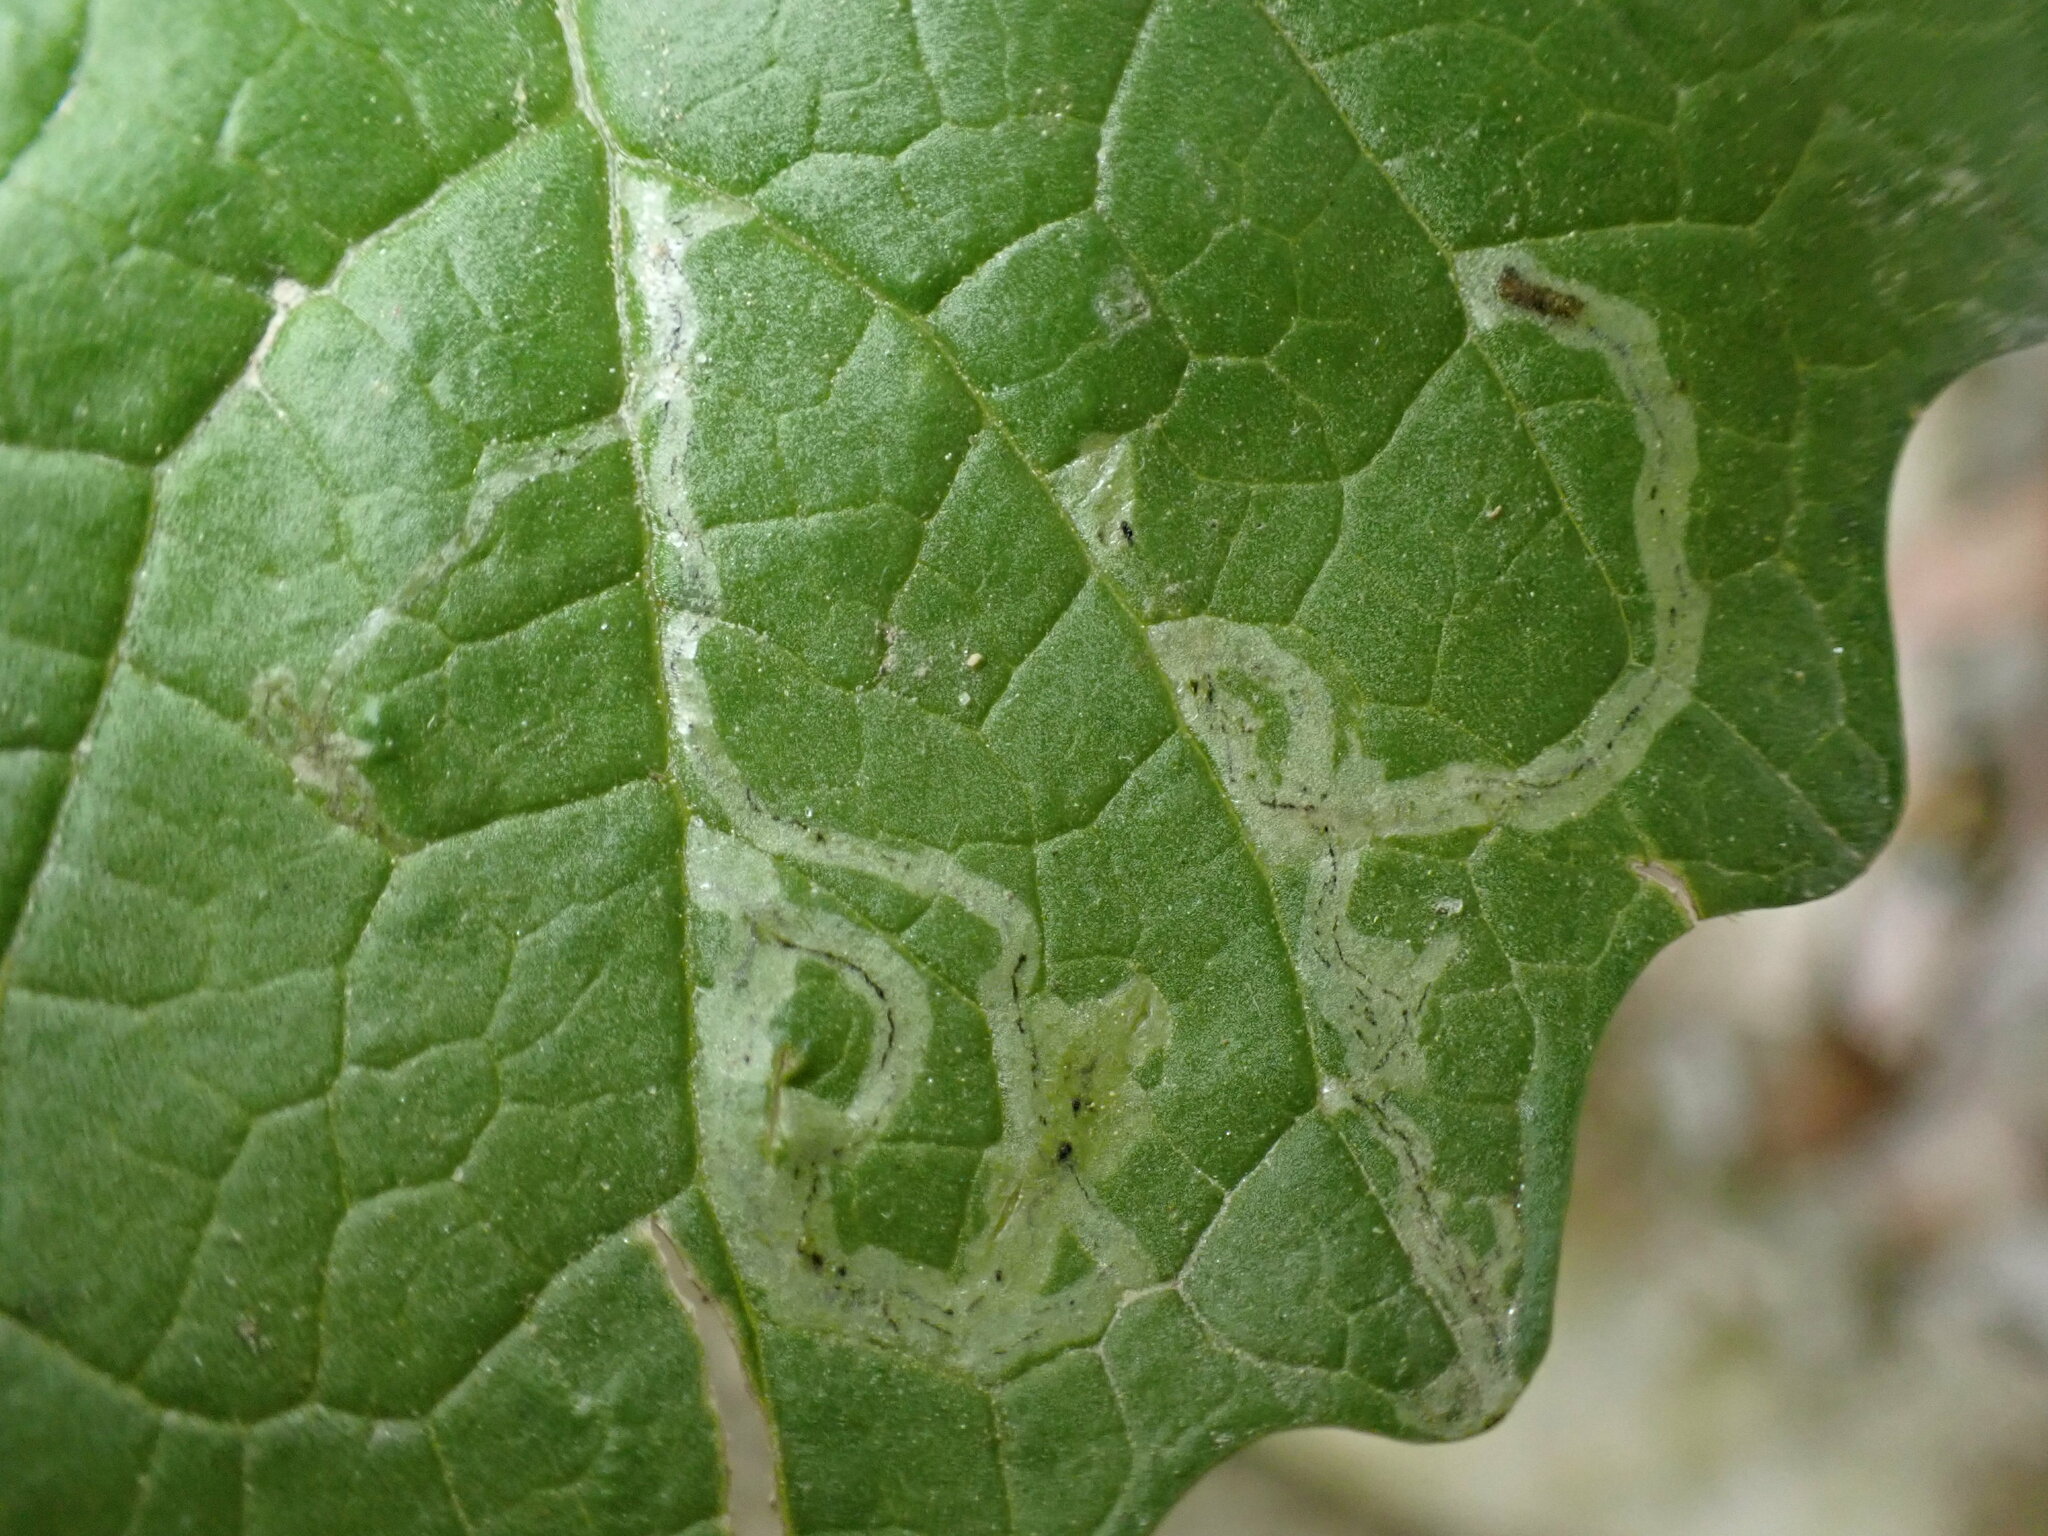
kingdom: Animalia
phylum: Arthropoda
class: Insecta
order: Diptera
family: Agromyzidae
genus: Liriomyza
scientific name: Liriomyza brassicae
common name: Serpentine leaf miner
